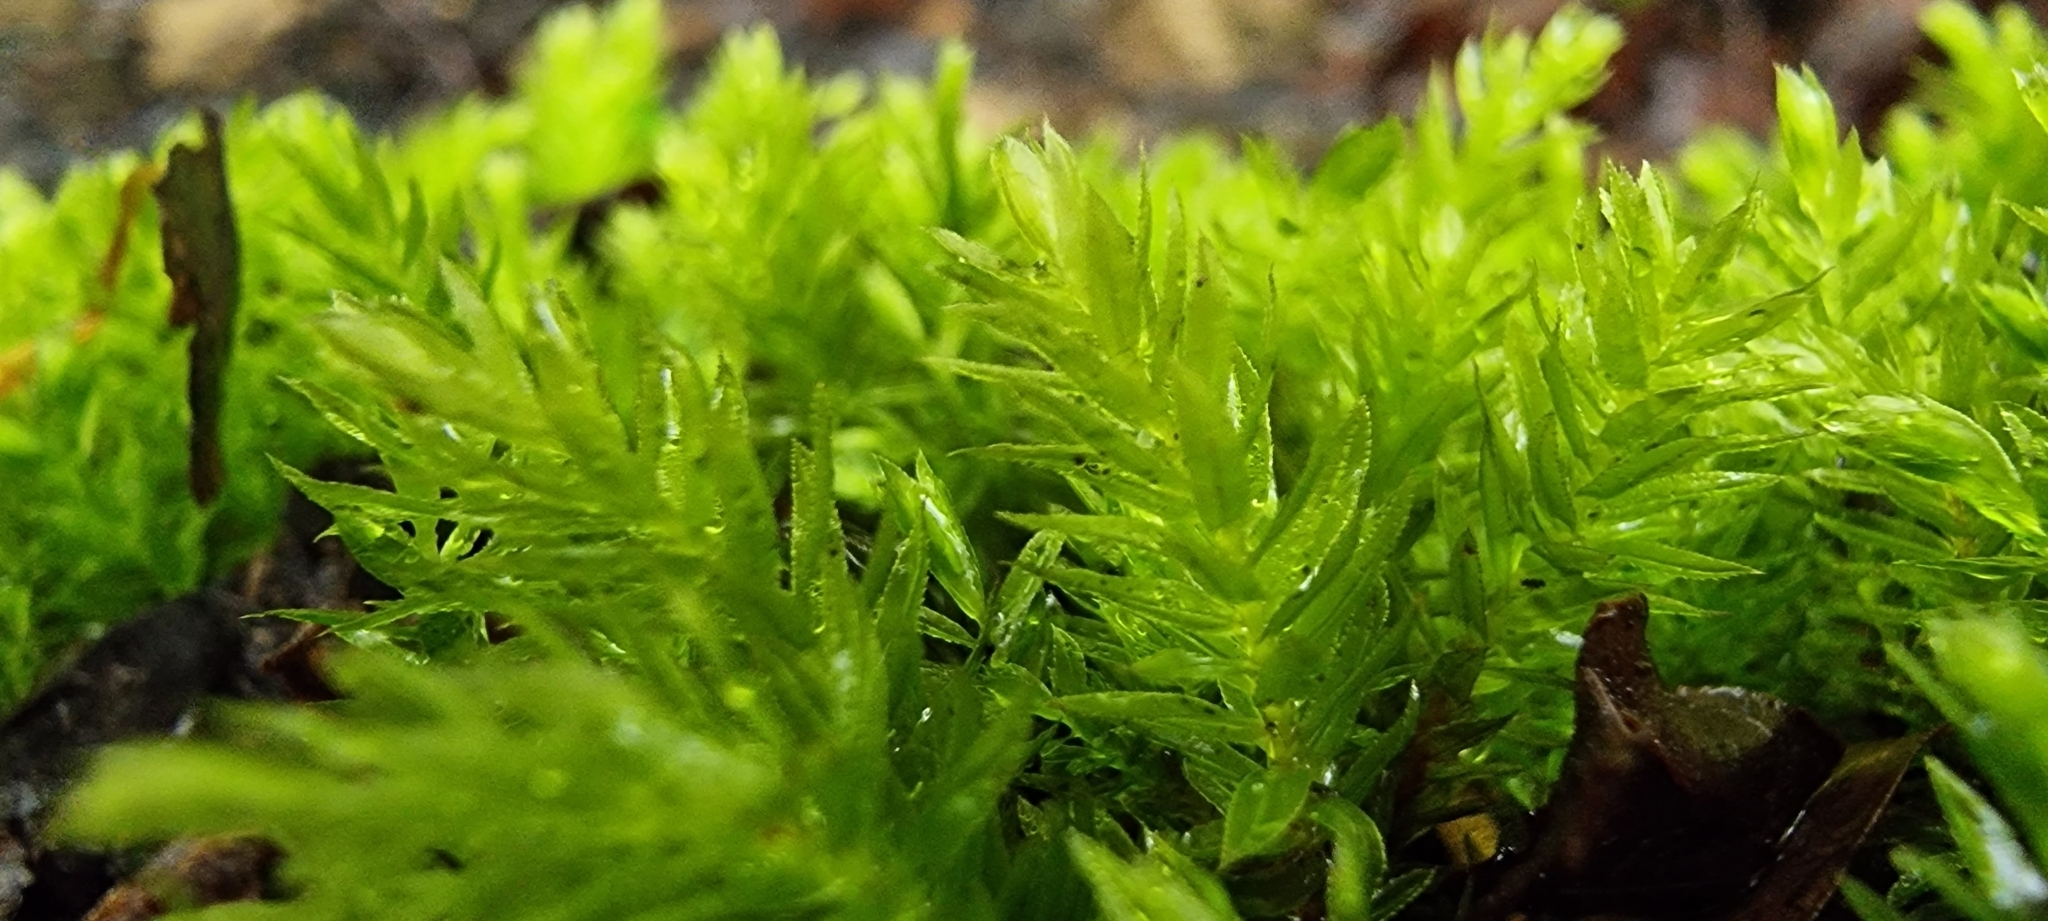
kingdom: Plantae
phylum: Bryophyta
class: Bryopsida
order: Bryales
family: Mniaceae
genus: Mnium
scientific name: Mnium hornum
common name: Swan's-neck leafy moss
